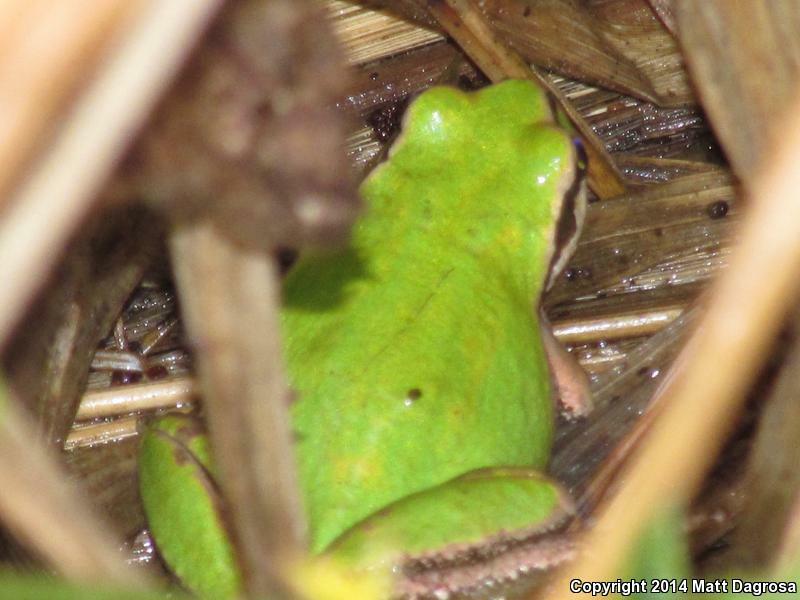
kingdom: Animalia
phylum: Chordata
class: Amphibia
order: Anura
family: Hylidae
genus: Pseudacris
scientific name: Pseudacris regilla
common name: Pacific chorus frog
